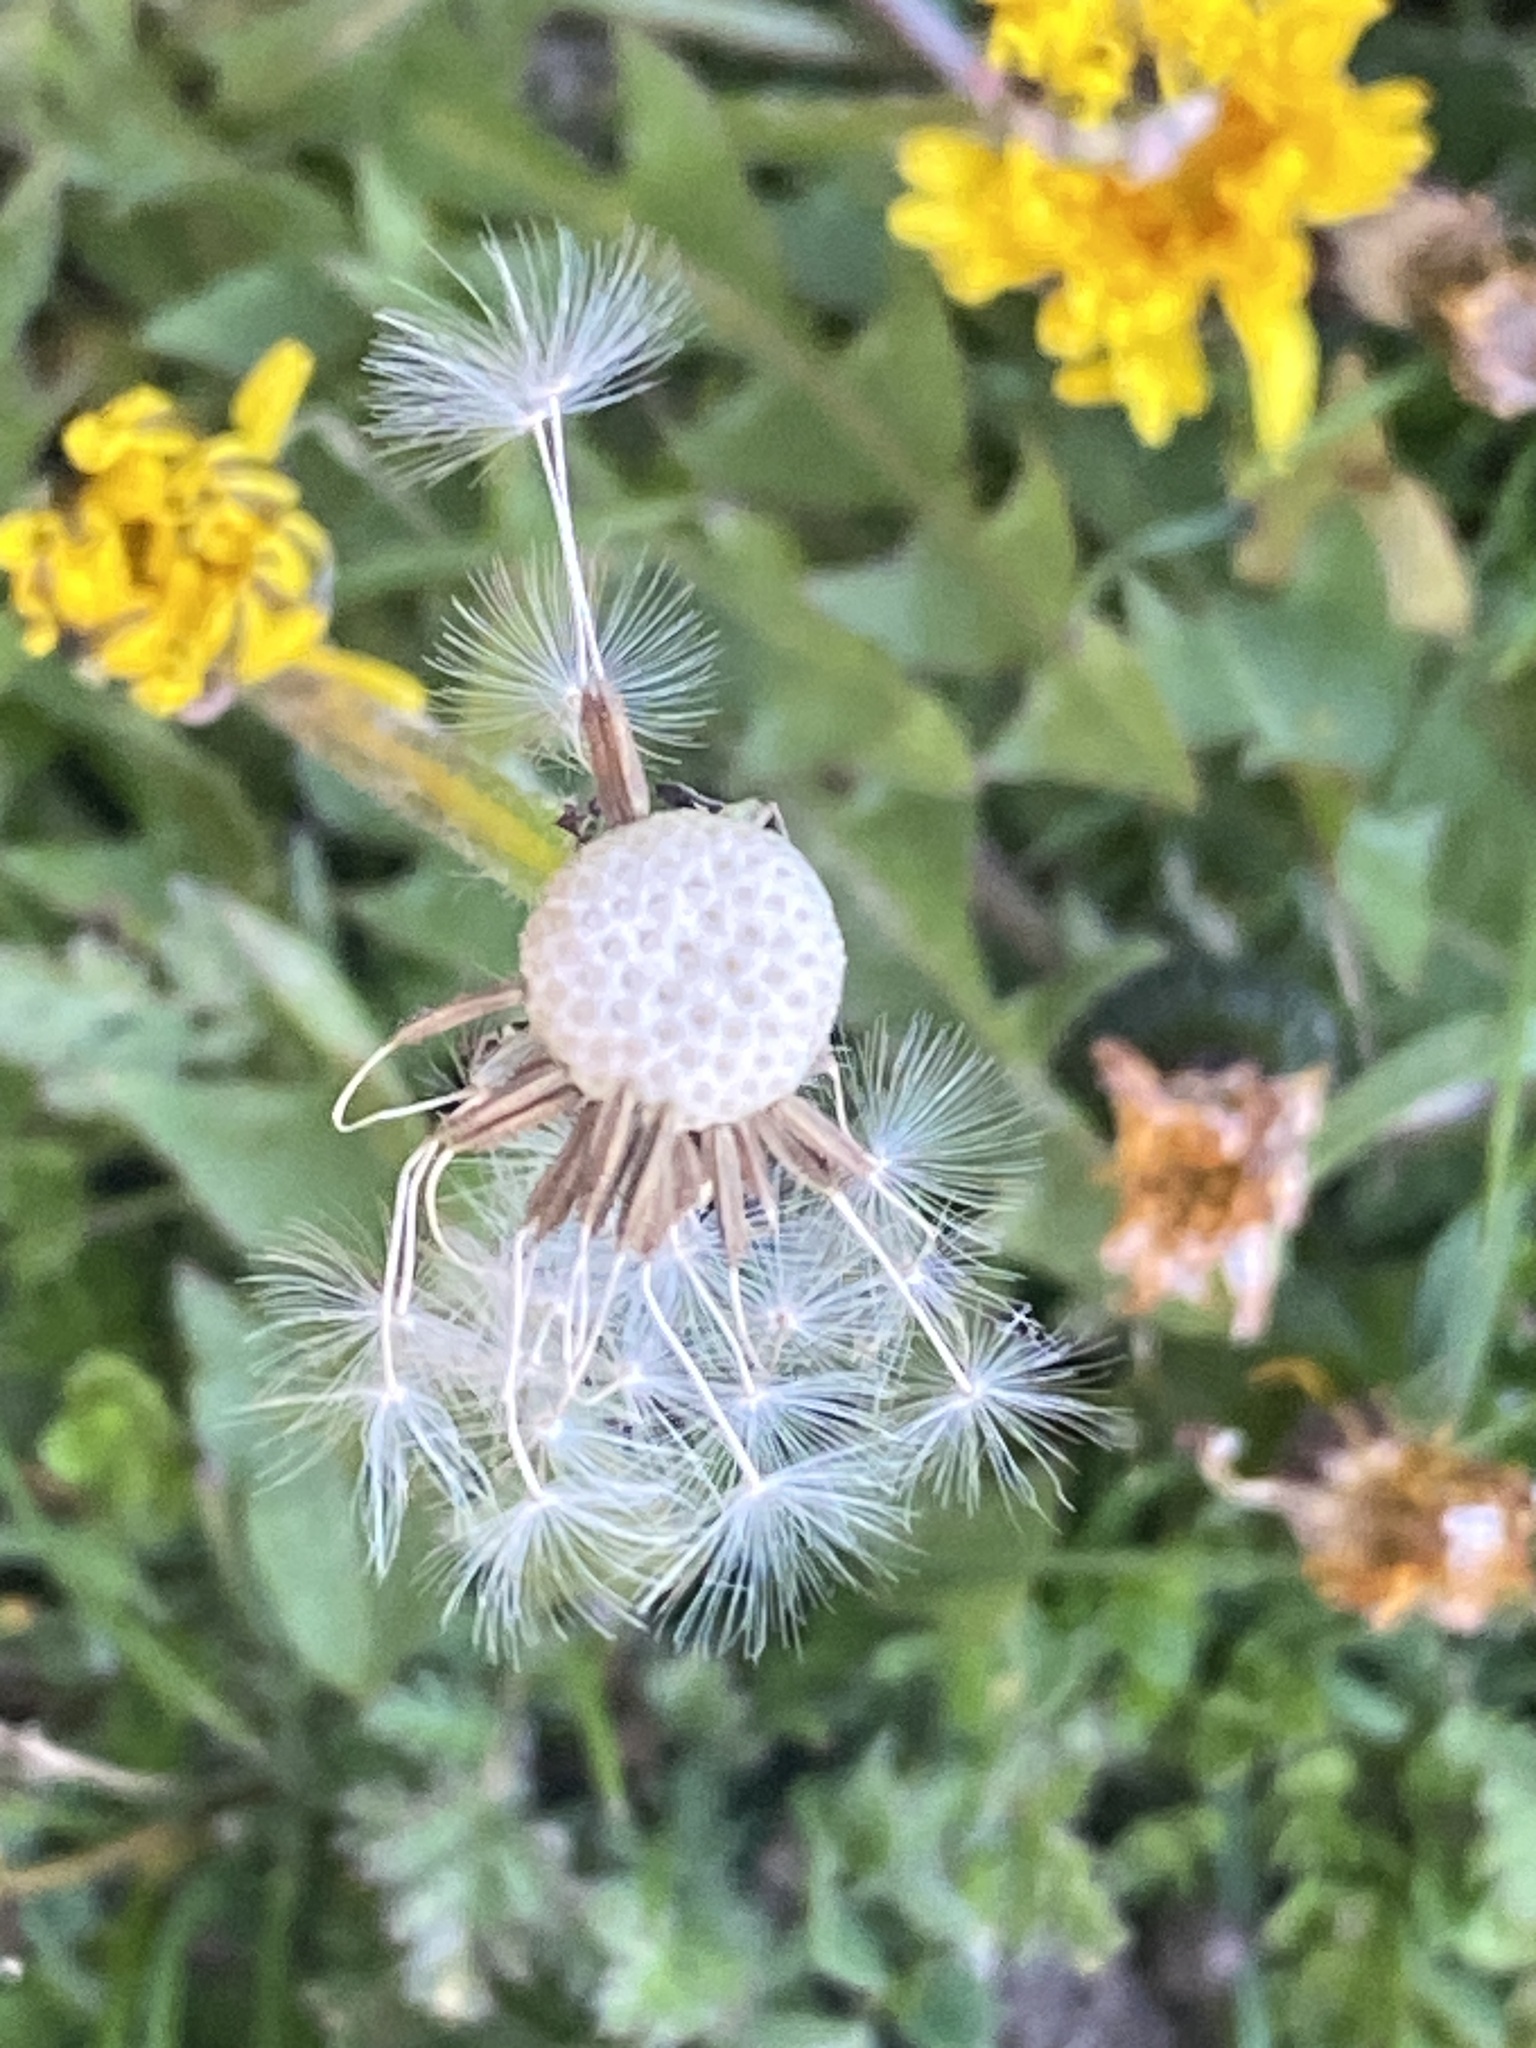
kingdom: Plantae
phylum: Tracheophyta
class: Magnoliopsida
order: Asterales
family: Asteraceae
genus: Taraxacum
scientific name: Taraxacum officinale
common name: Common dandelion
